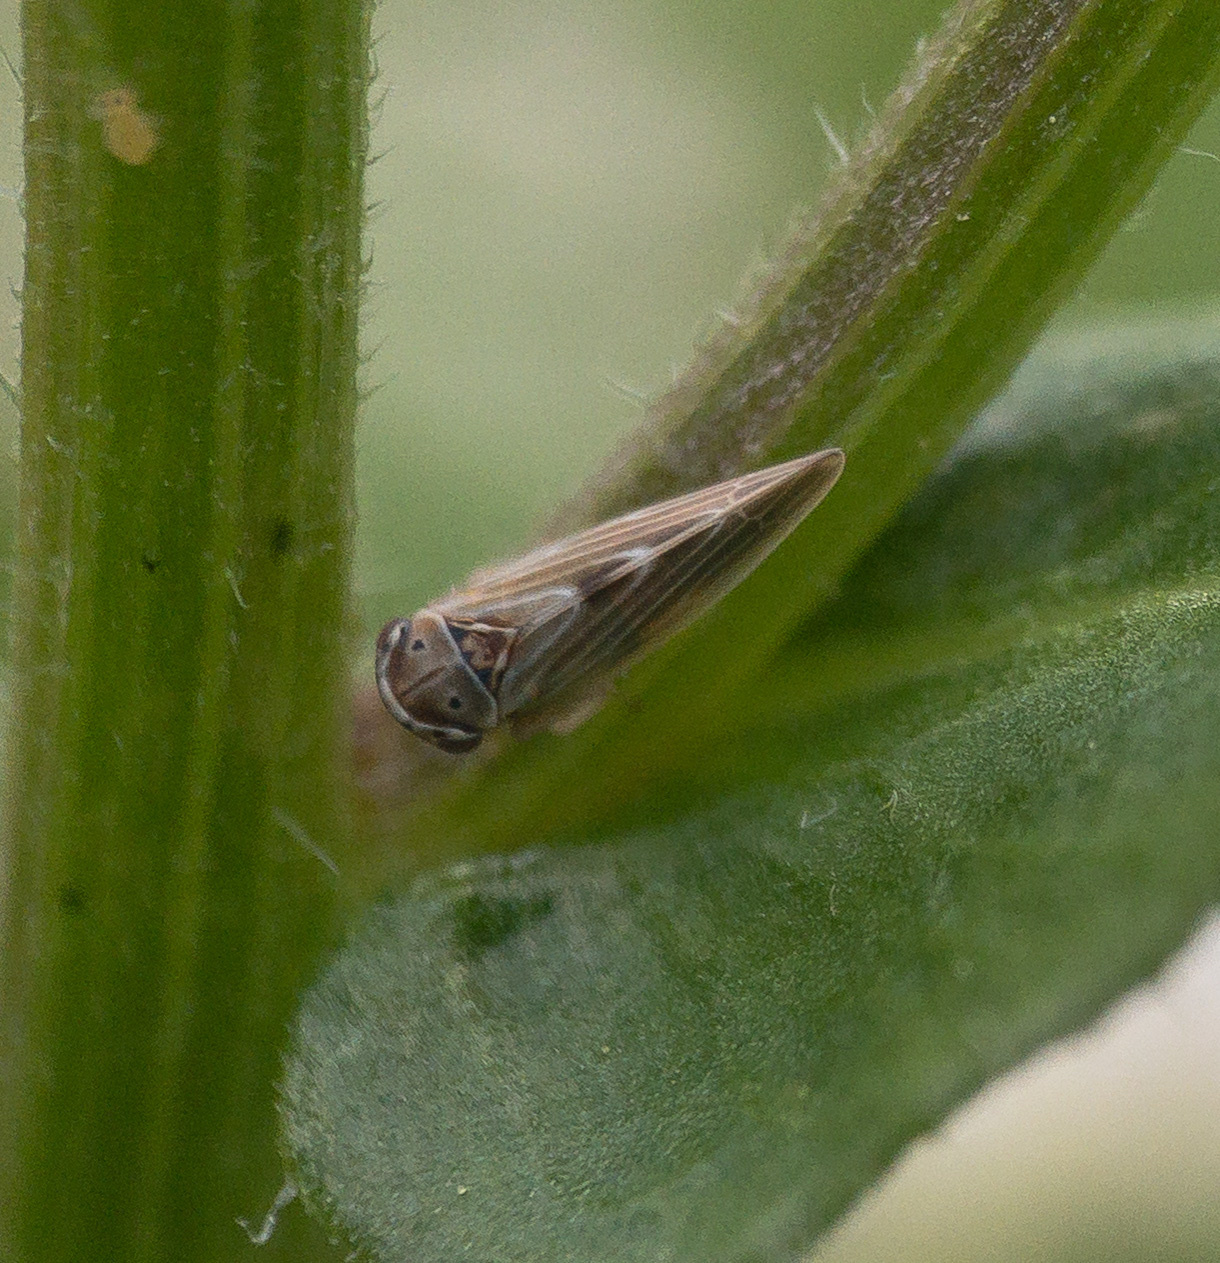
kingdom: Animalia
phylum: Arthropoda
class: Insecta
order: Hemiptera
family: Cicadellidae
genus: Agalliopsis
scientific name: Agalliopsis ancistra
